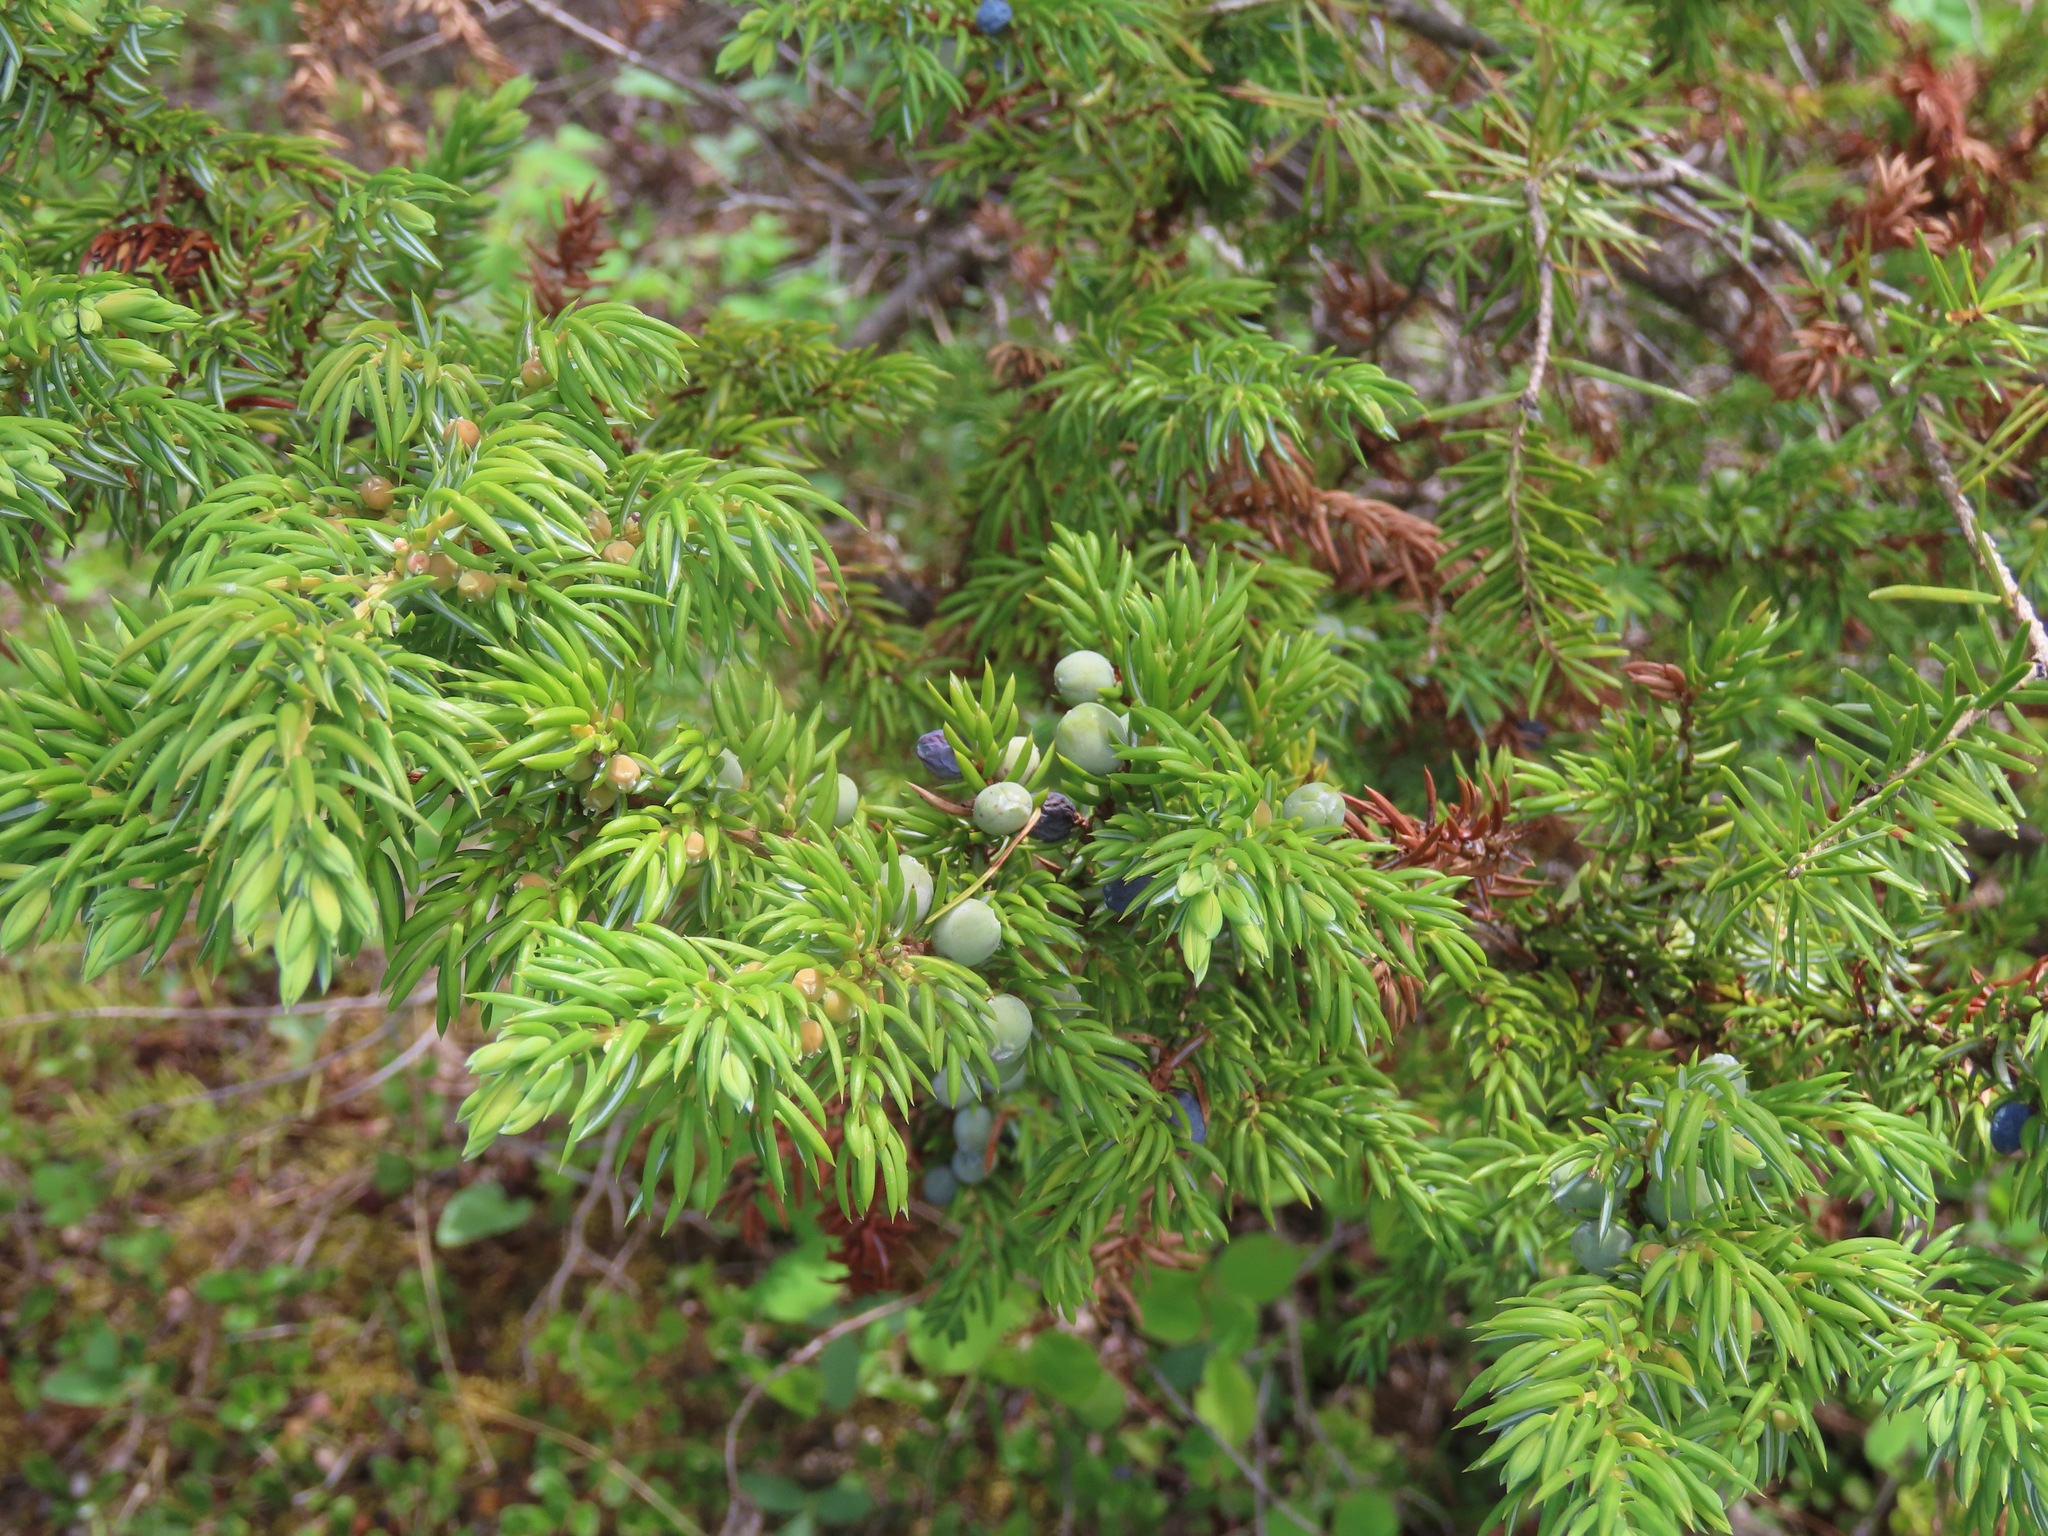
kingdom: Plantae
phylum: Tracheophyta
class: Pinopsida
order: Pinales
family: Cupressaceae
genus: Juniperus
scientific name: Juniperus communis
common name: Common juniper
